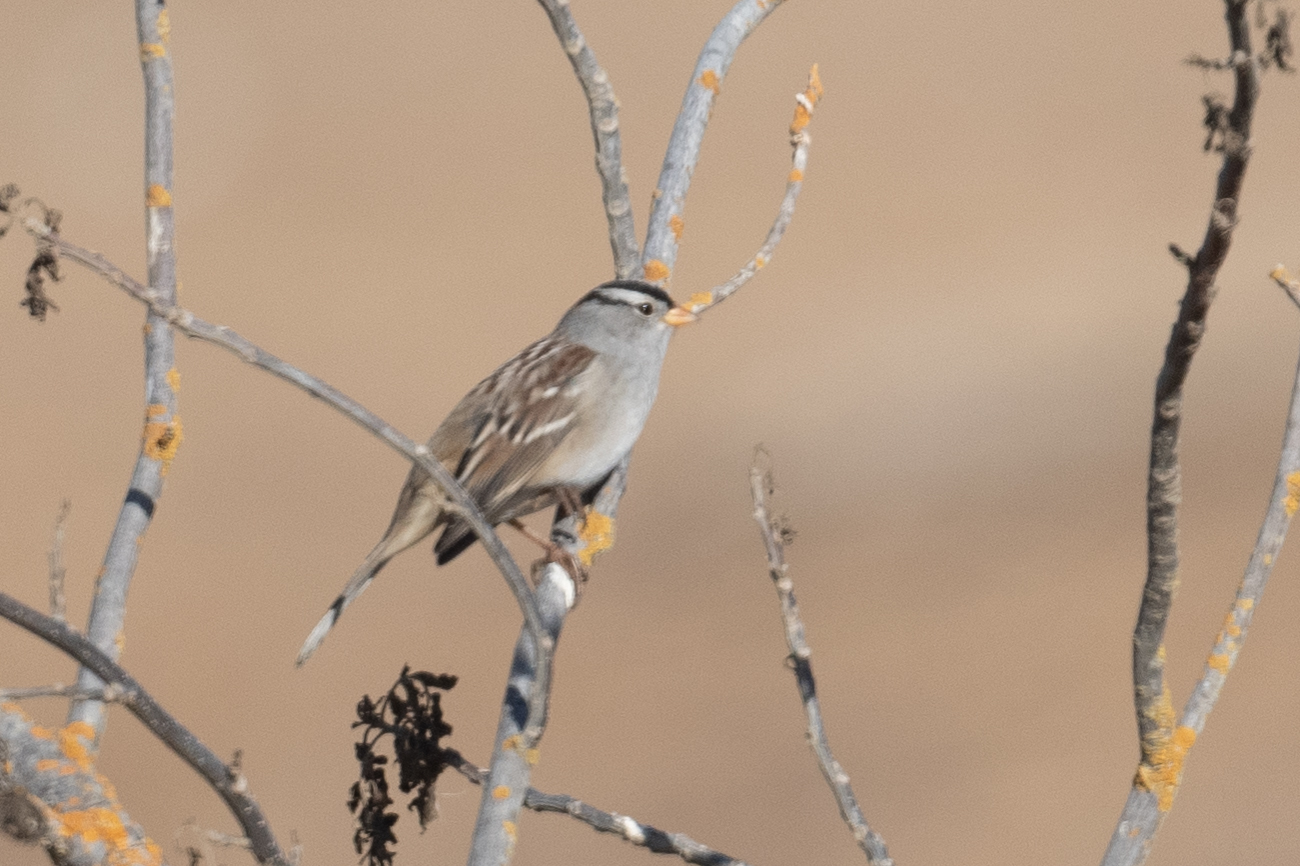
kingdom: Animalia
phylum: Chordata
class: Aves
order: Passeriformes
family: Passerellidae
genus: Zonotrichia
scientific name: Zonotrichia leucophrys
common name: White-crowned sparrow
